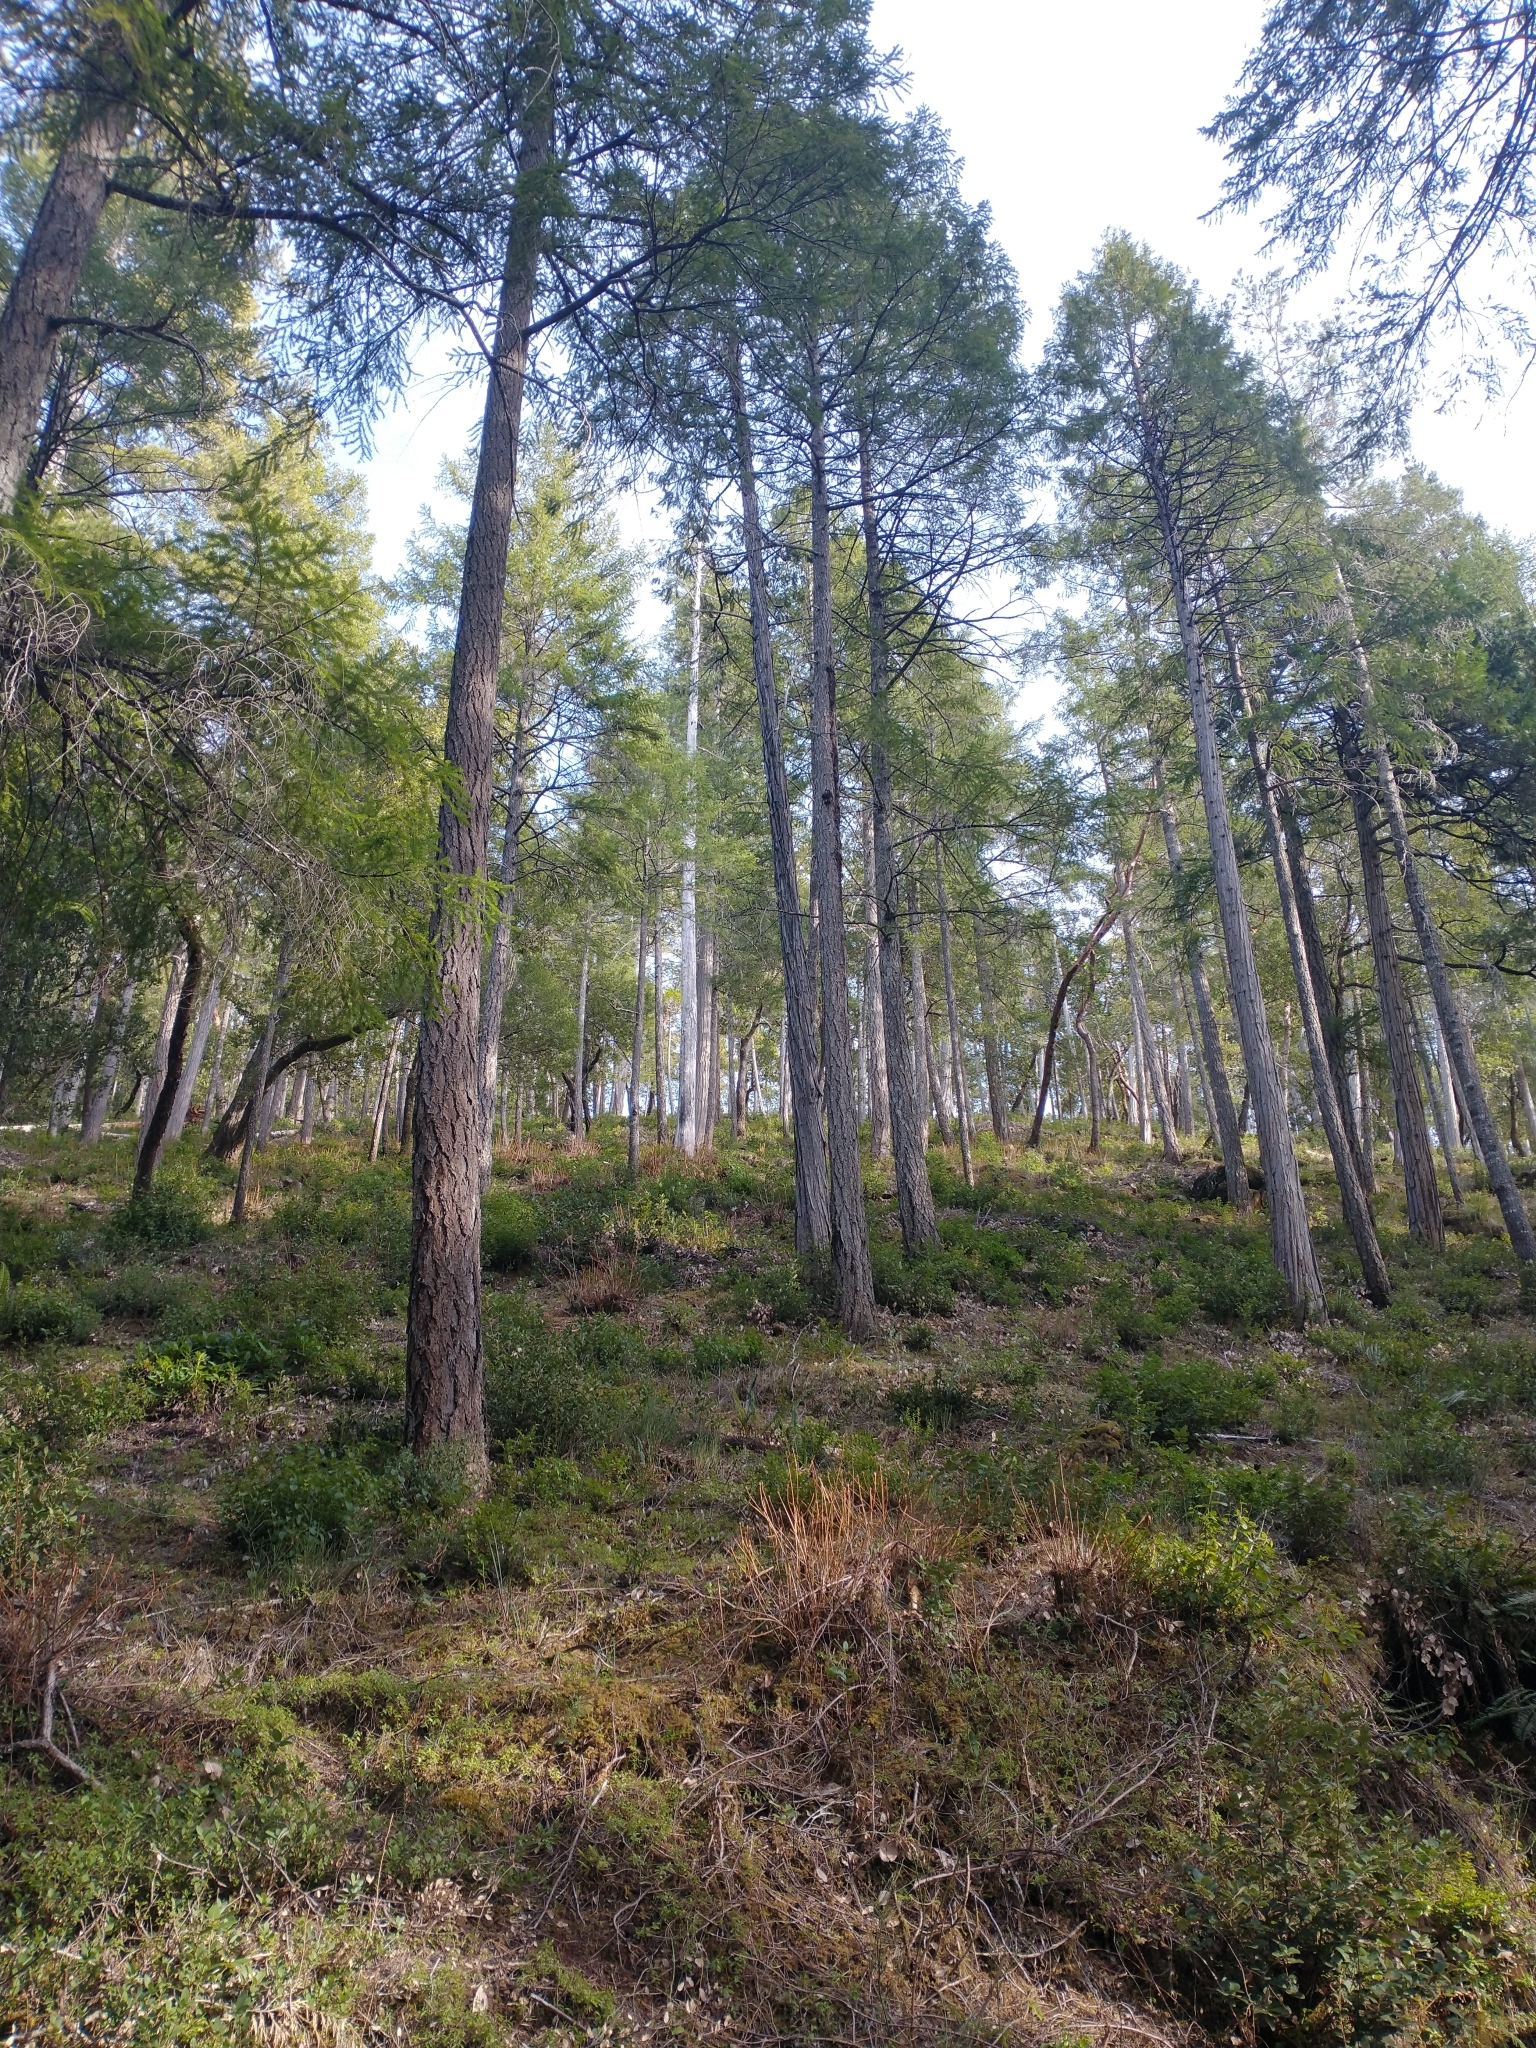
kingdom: Plantae
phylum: Tracheophyta
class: Pinopsida
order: Pinales
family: Pinaceae
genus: Pseudotsuga
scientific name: Pseudotsuga menziesii
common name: Douglas fir
